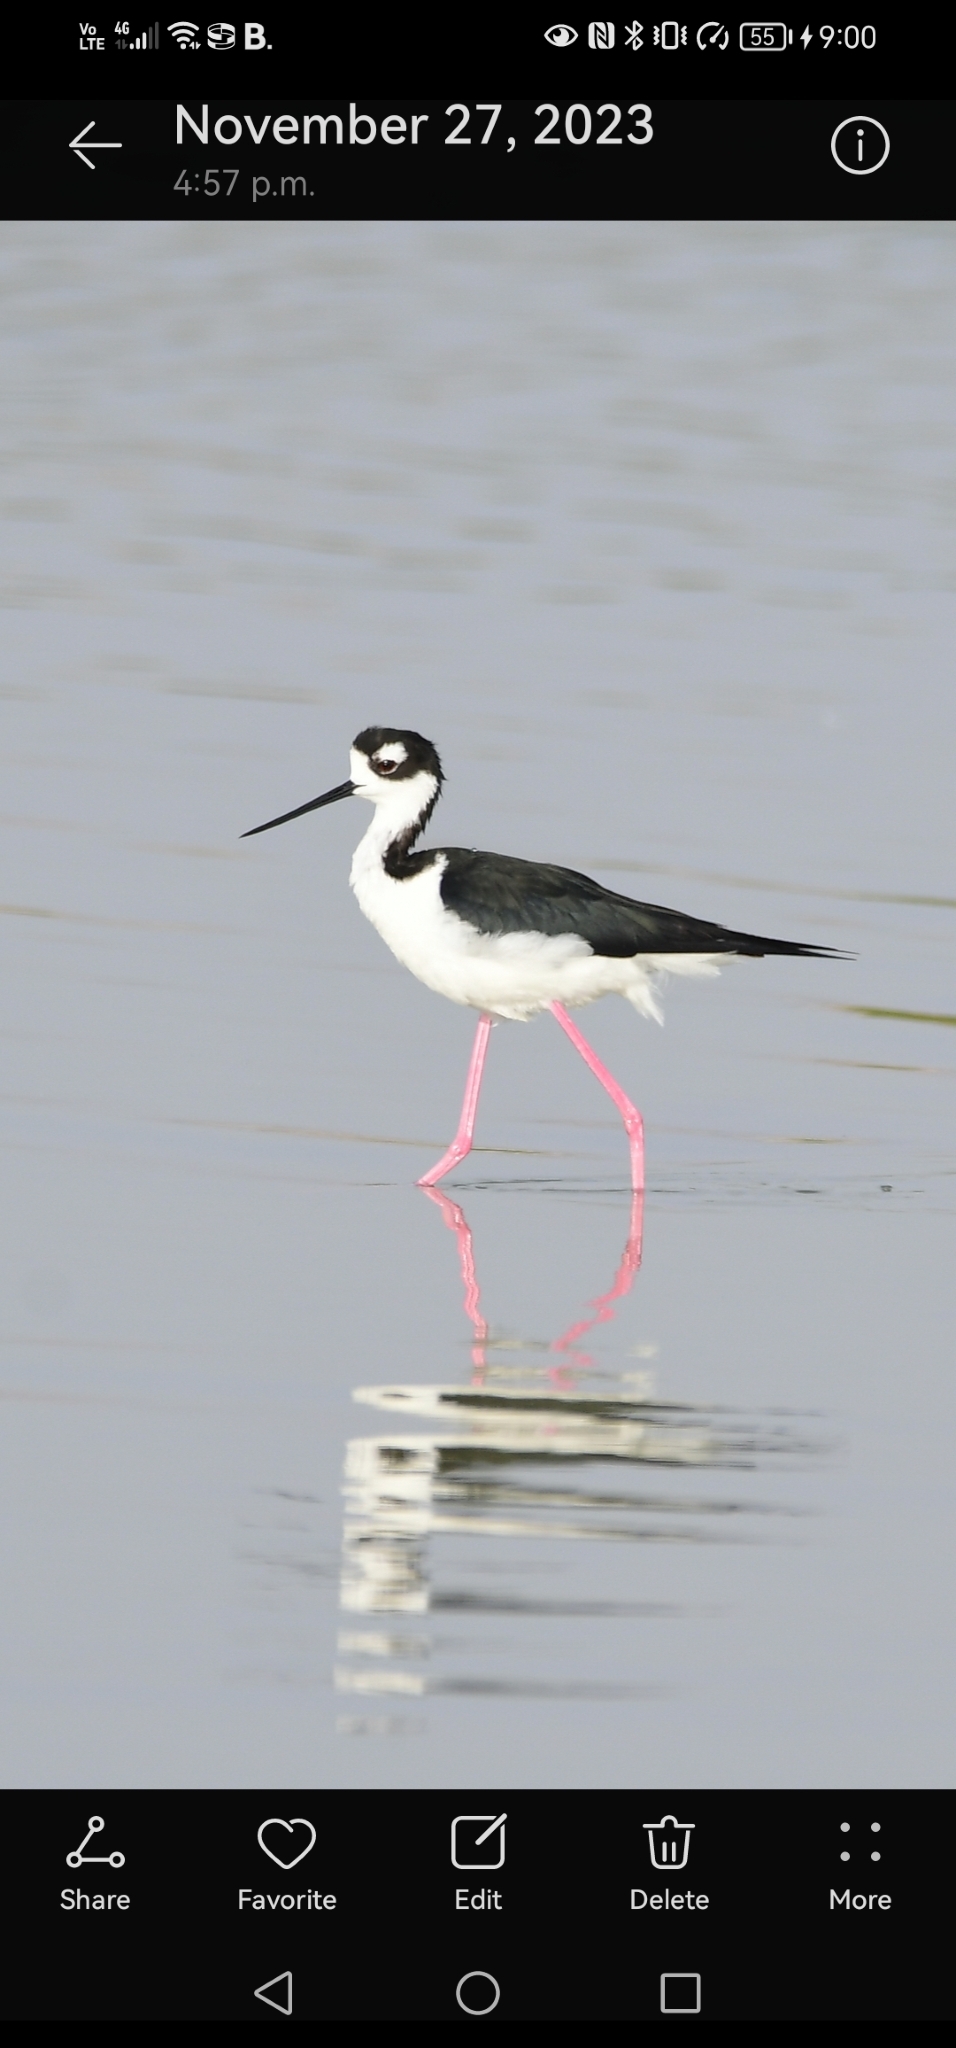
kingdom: Animalia
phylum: Chordata
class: Aves
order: Charadriiformes
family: Recurvirostridae
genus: Himantopus
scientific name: Himantopus mexicanus
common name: Black-necked stilt
